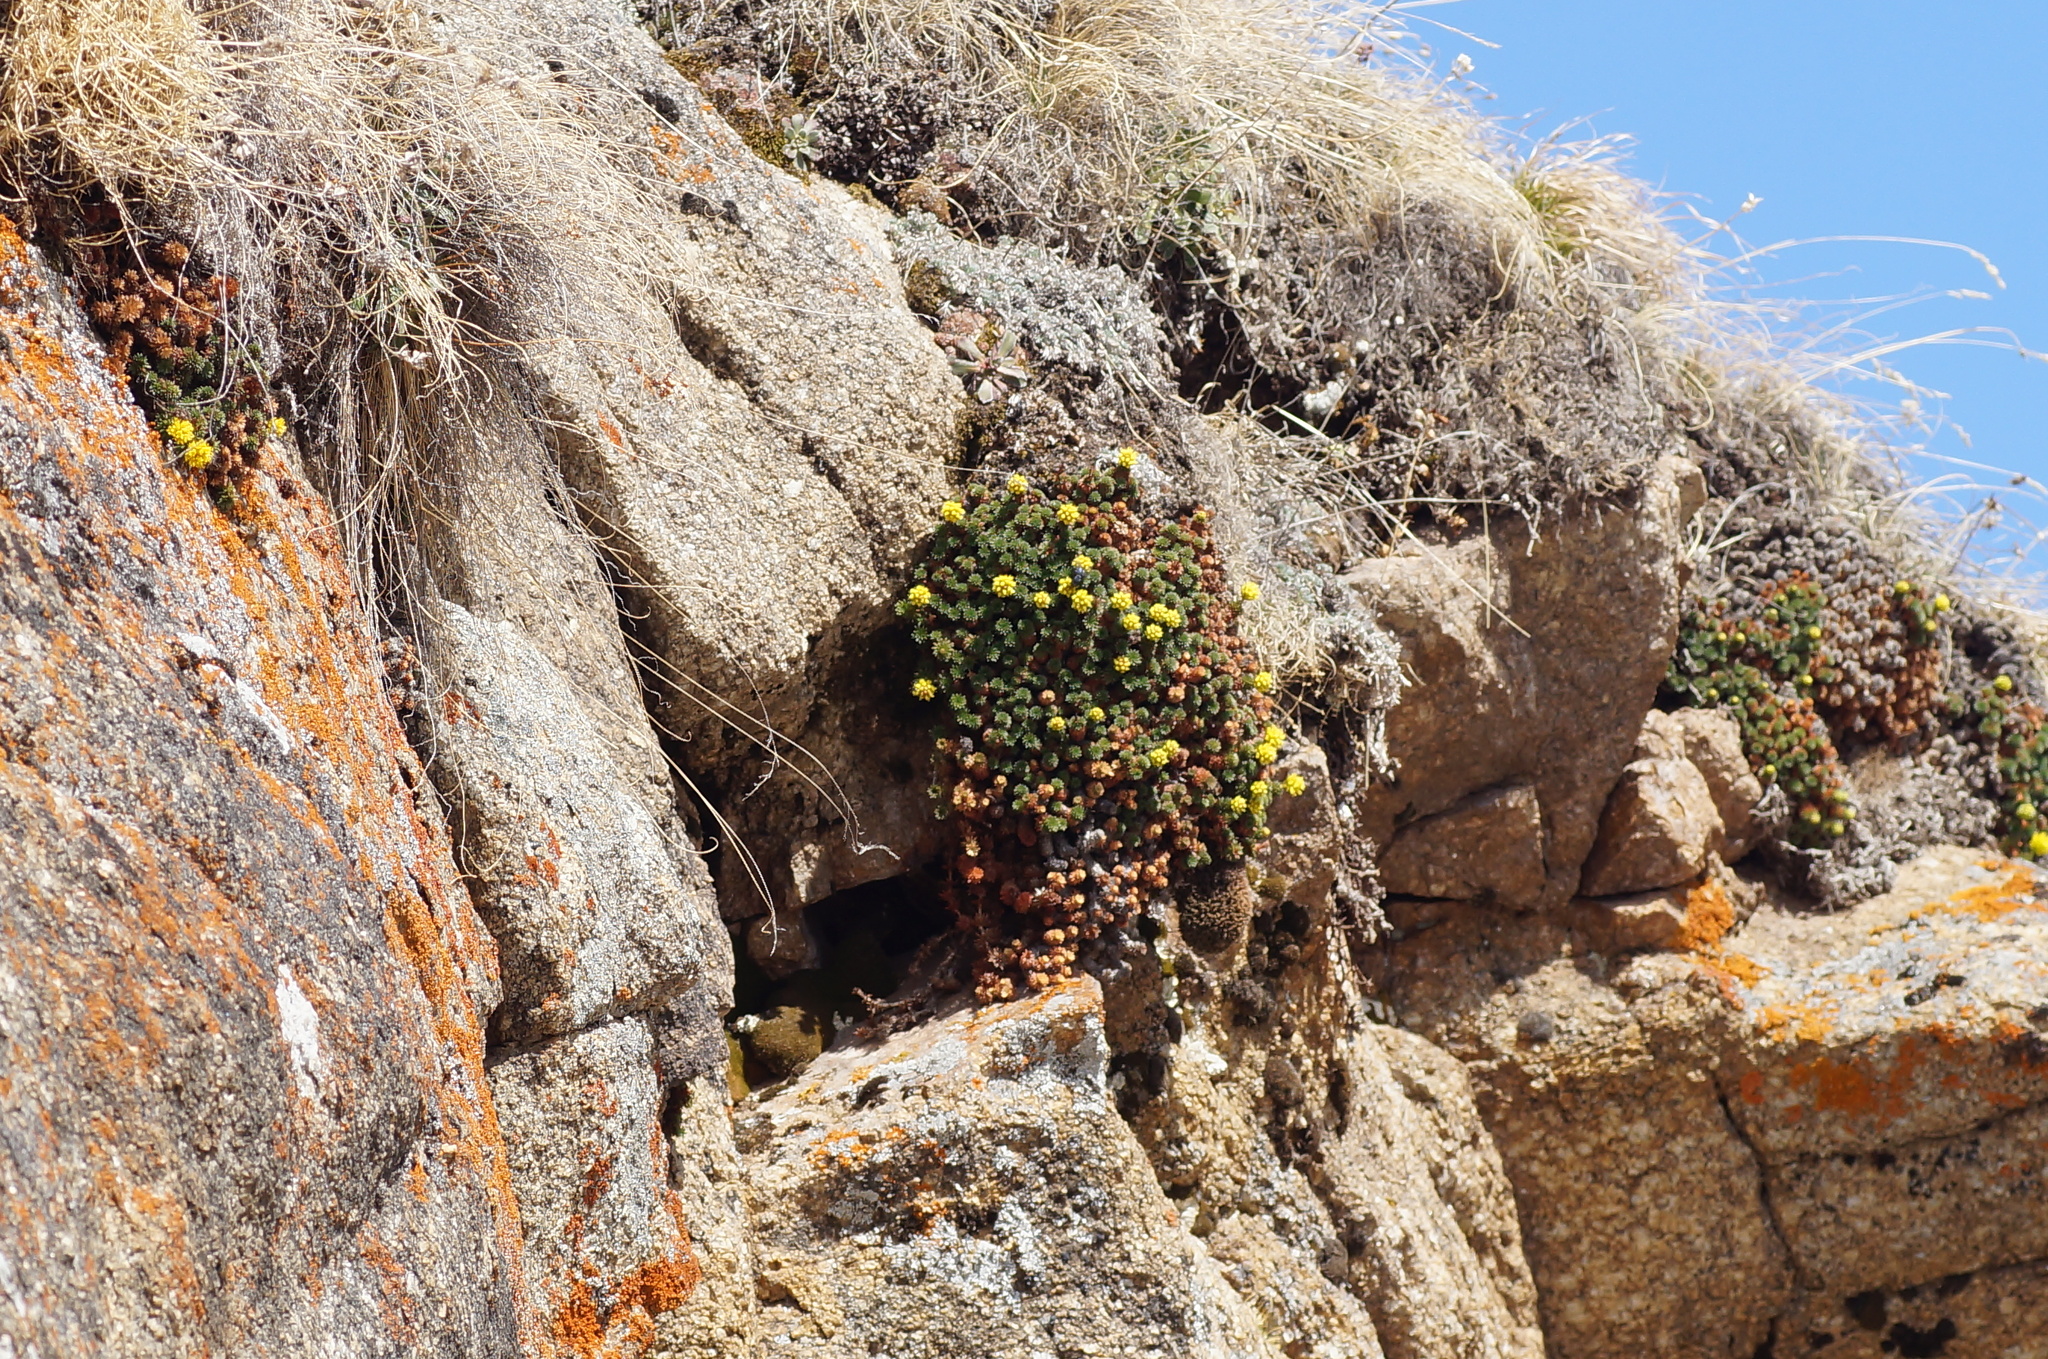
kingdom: Plantae
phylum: Tracheophyta
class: Magnoliopsida
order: Saxifragales
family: Saxifragaceae
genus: Saxifraga
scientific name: Saxifraga scleropoda
